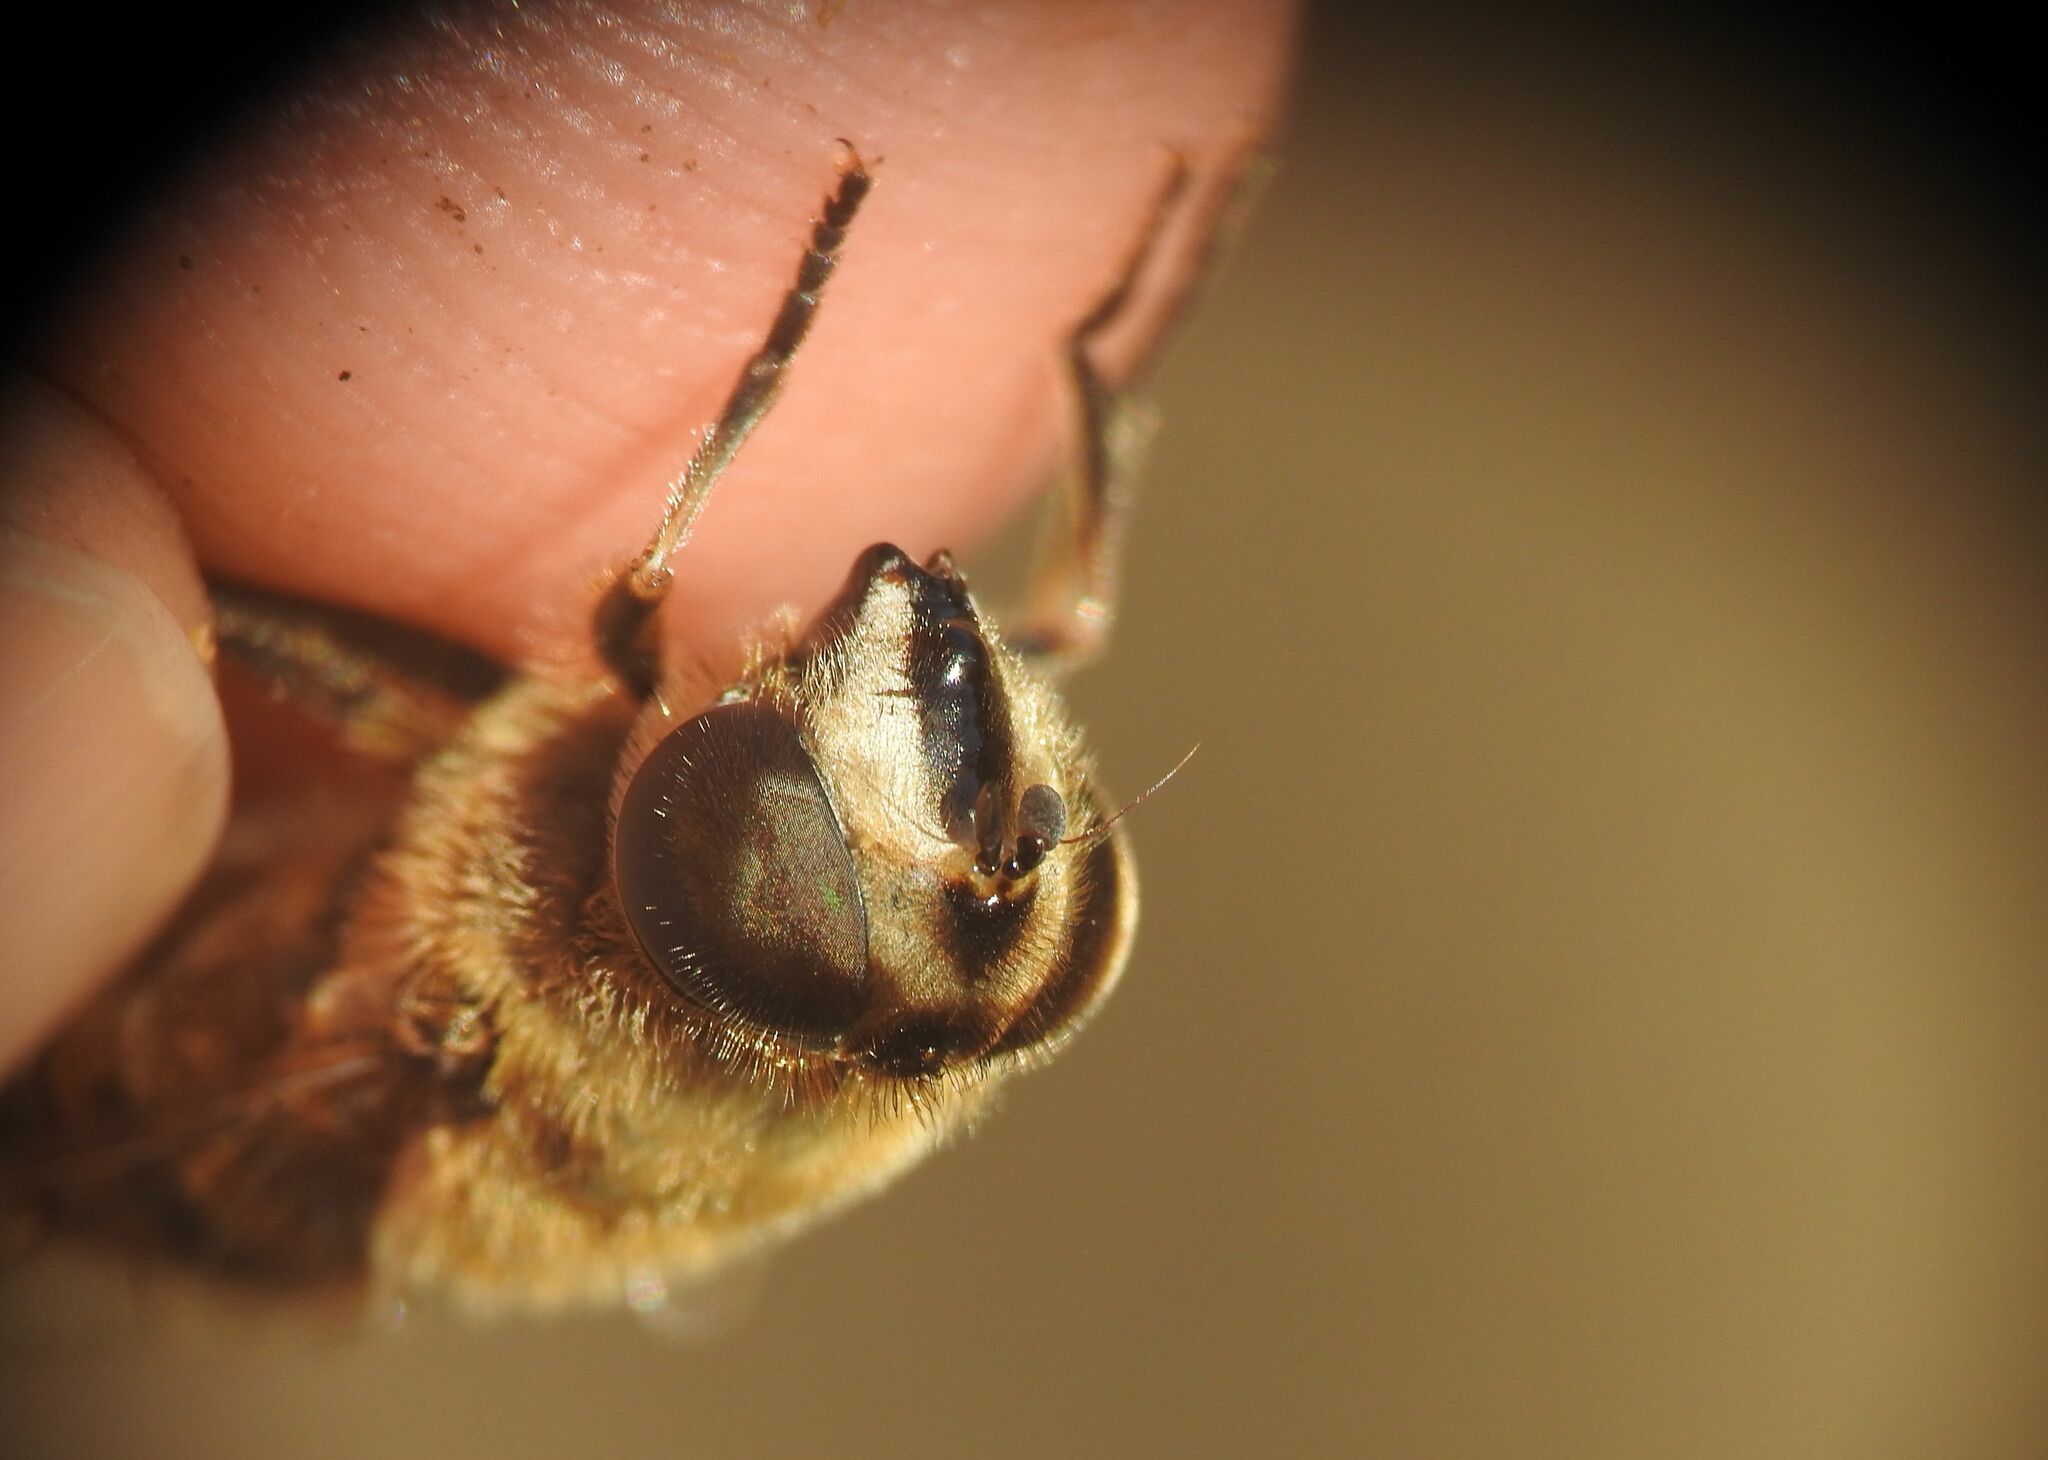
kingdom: Animalia
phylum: Arthropoda
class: Insecta
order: Diptera
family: Syrphidae
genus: Eristalis
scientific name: Eristalis tenax
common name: Drone fly
